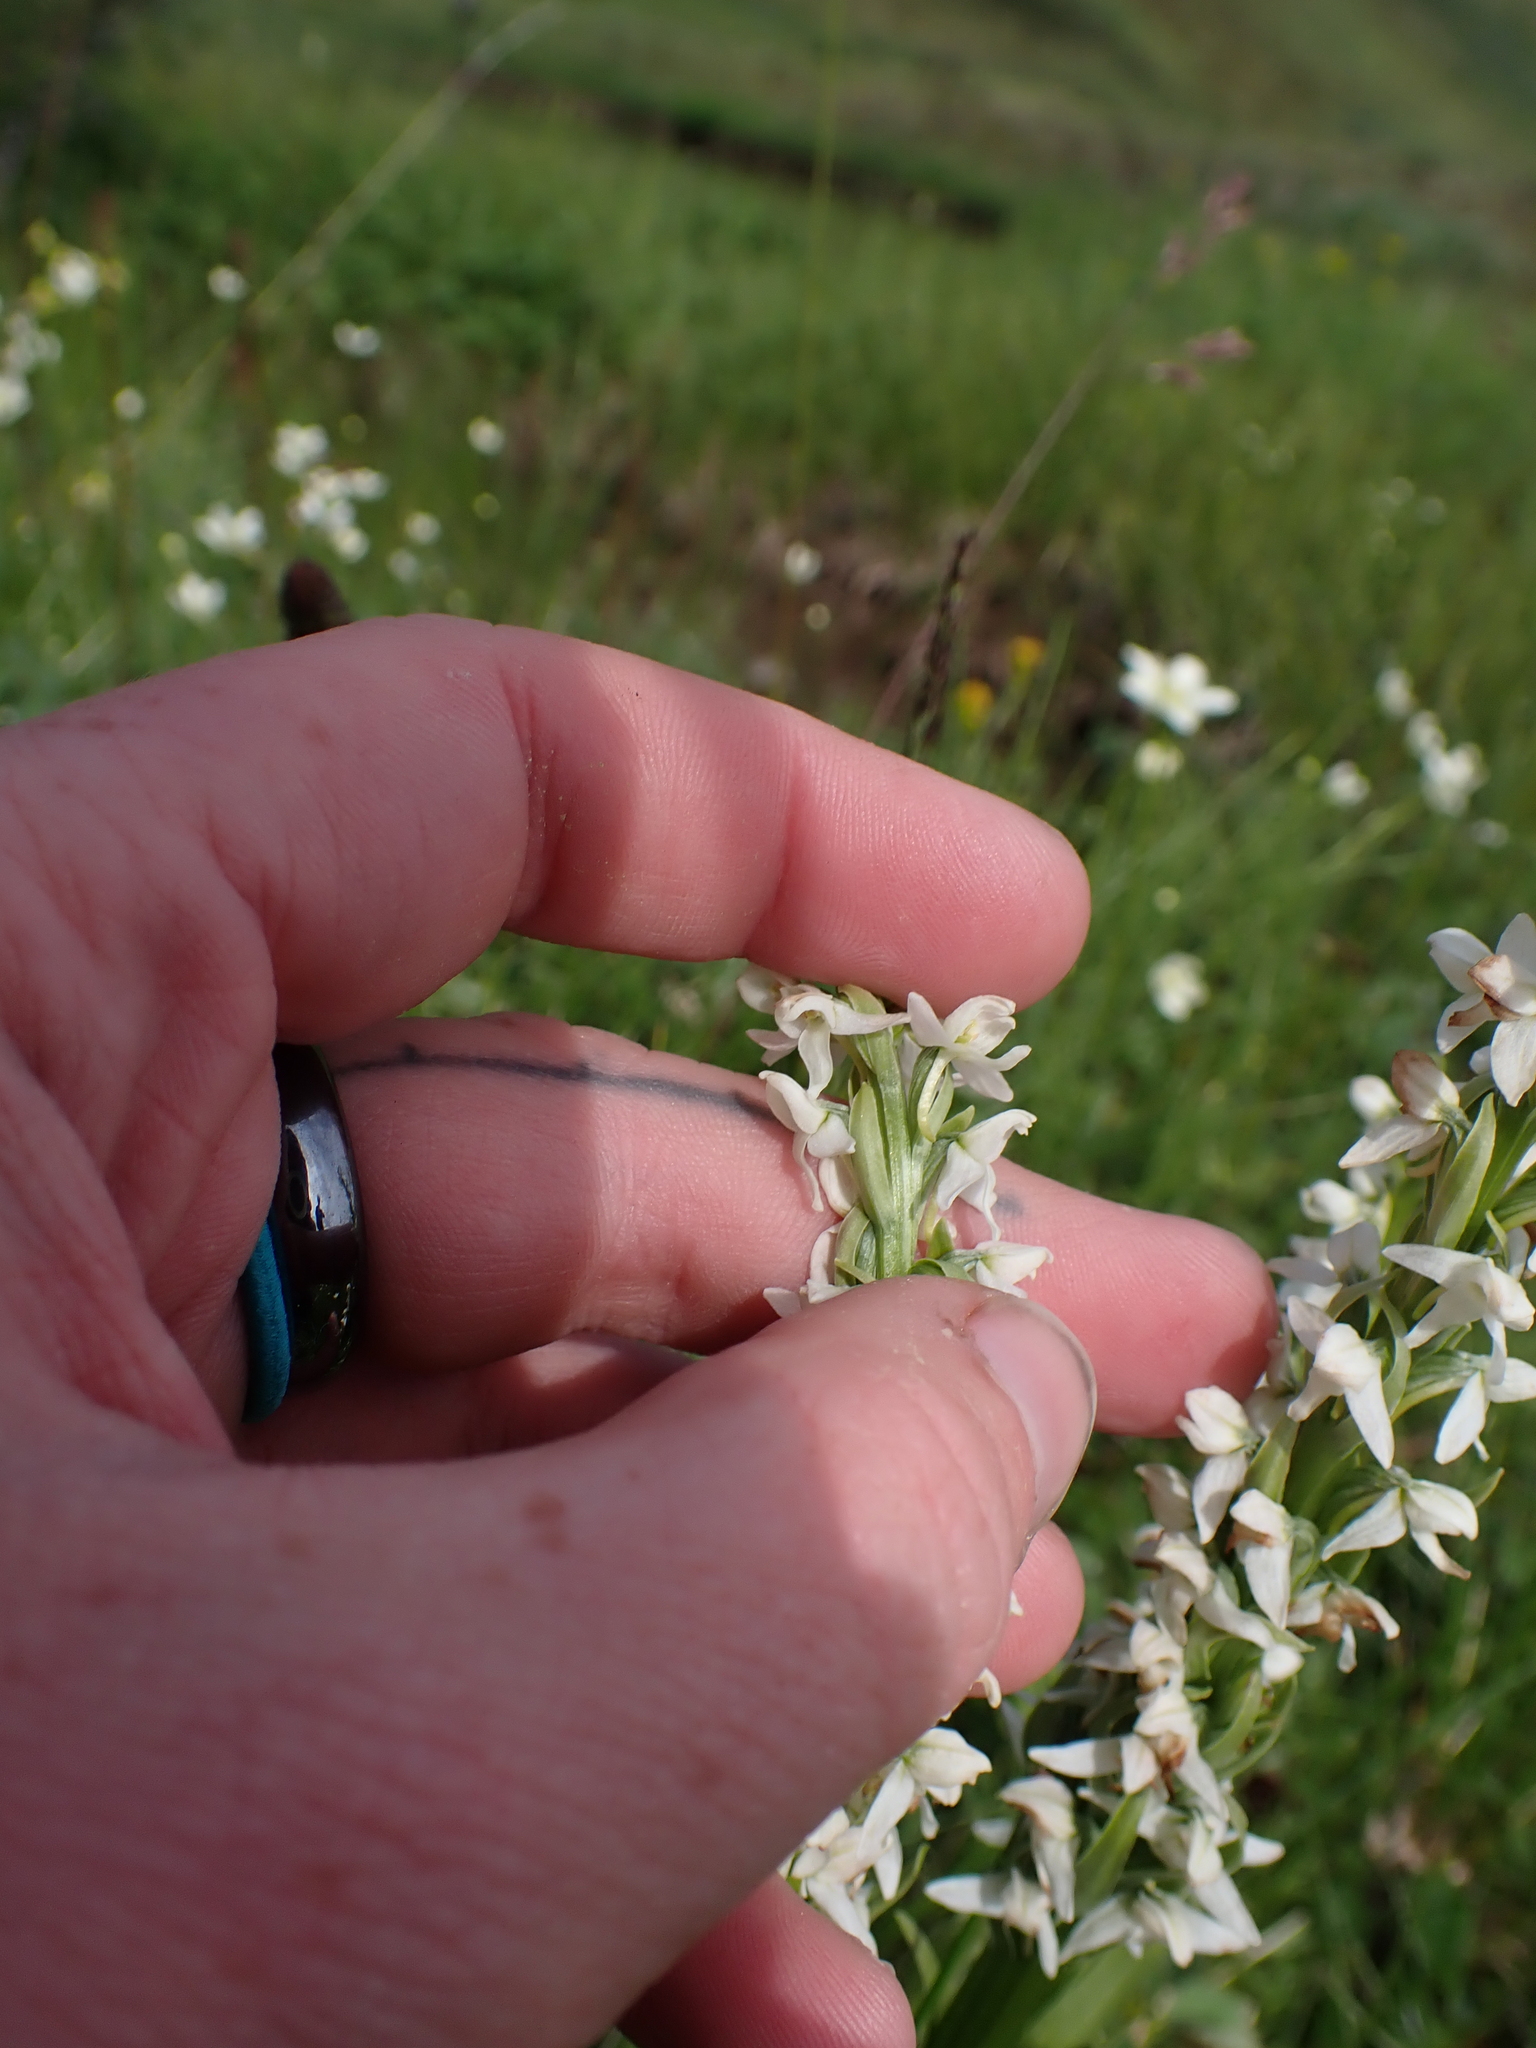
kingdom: Plantae
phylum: Tracheophyta
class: Liliopsida
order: Asparagales
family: Orchidaceae
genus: Platanthera
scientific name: Platanthera dilatata
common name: Bog candles
